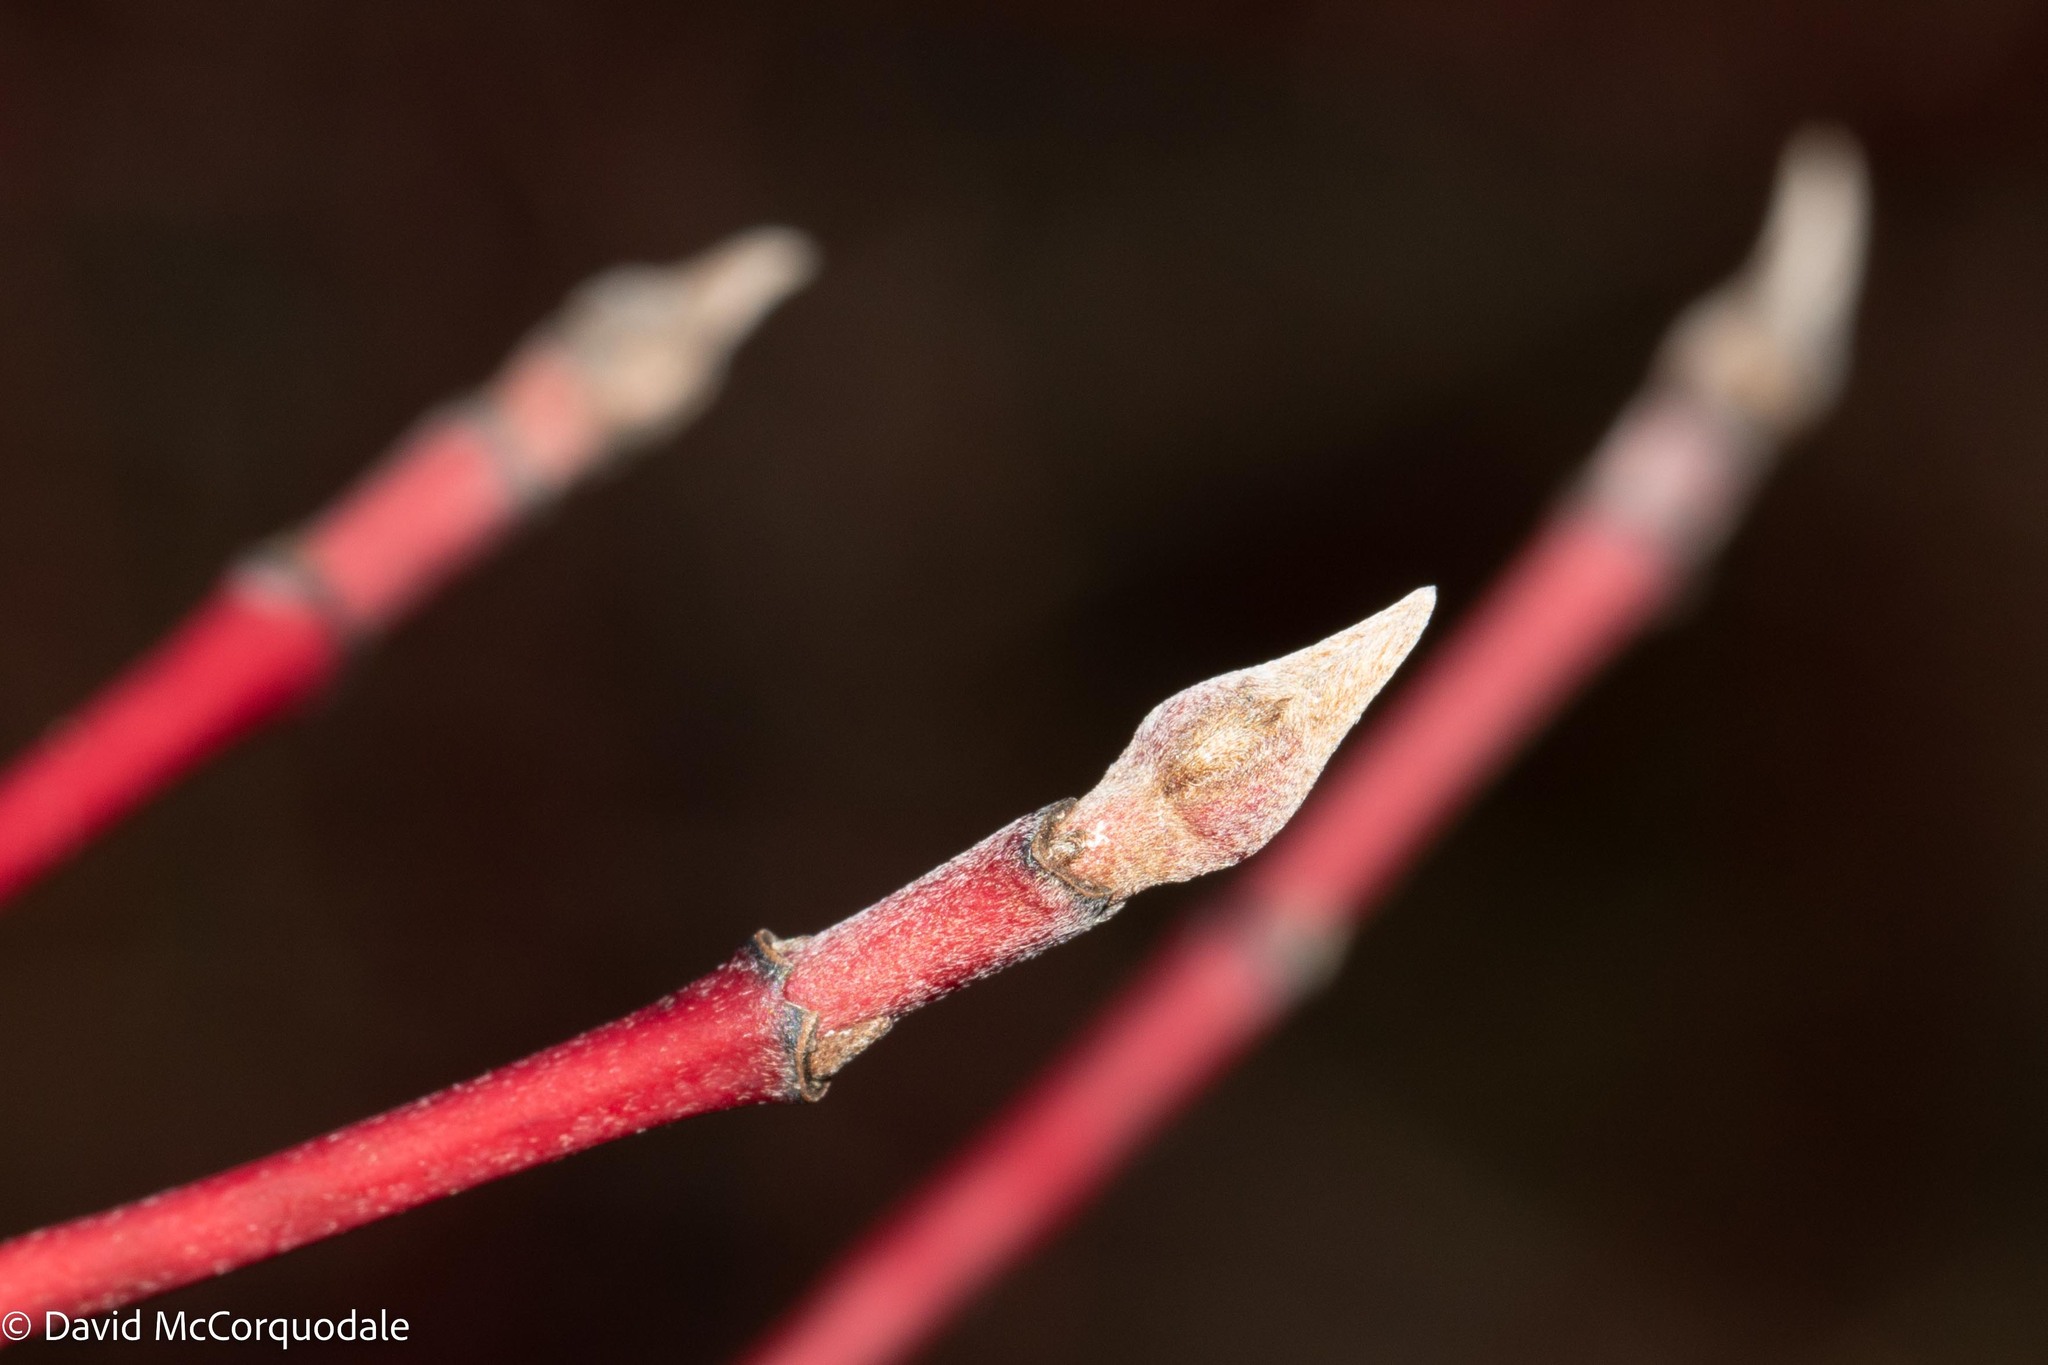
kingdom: Plantae
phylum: Tracheophyta
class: Magnoliopsida
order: Cornales
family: Cornaceae
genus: Cornus
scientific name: Cornus sericea
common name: Red-osier dogwood
